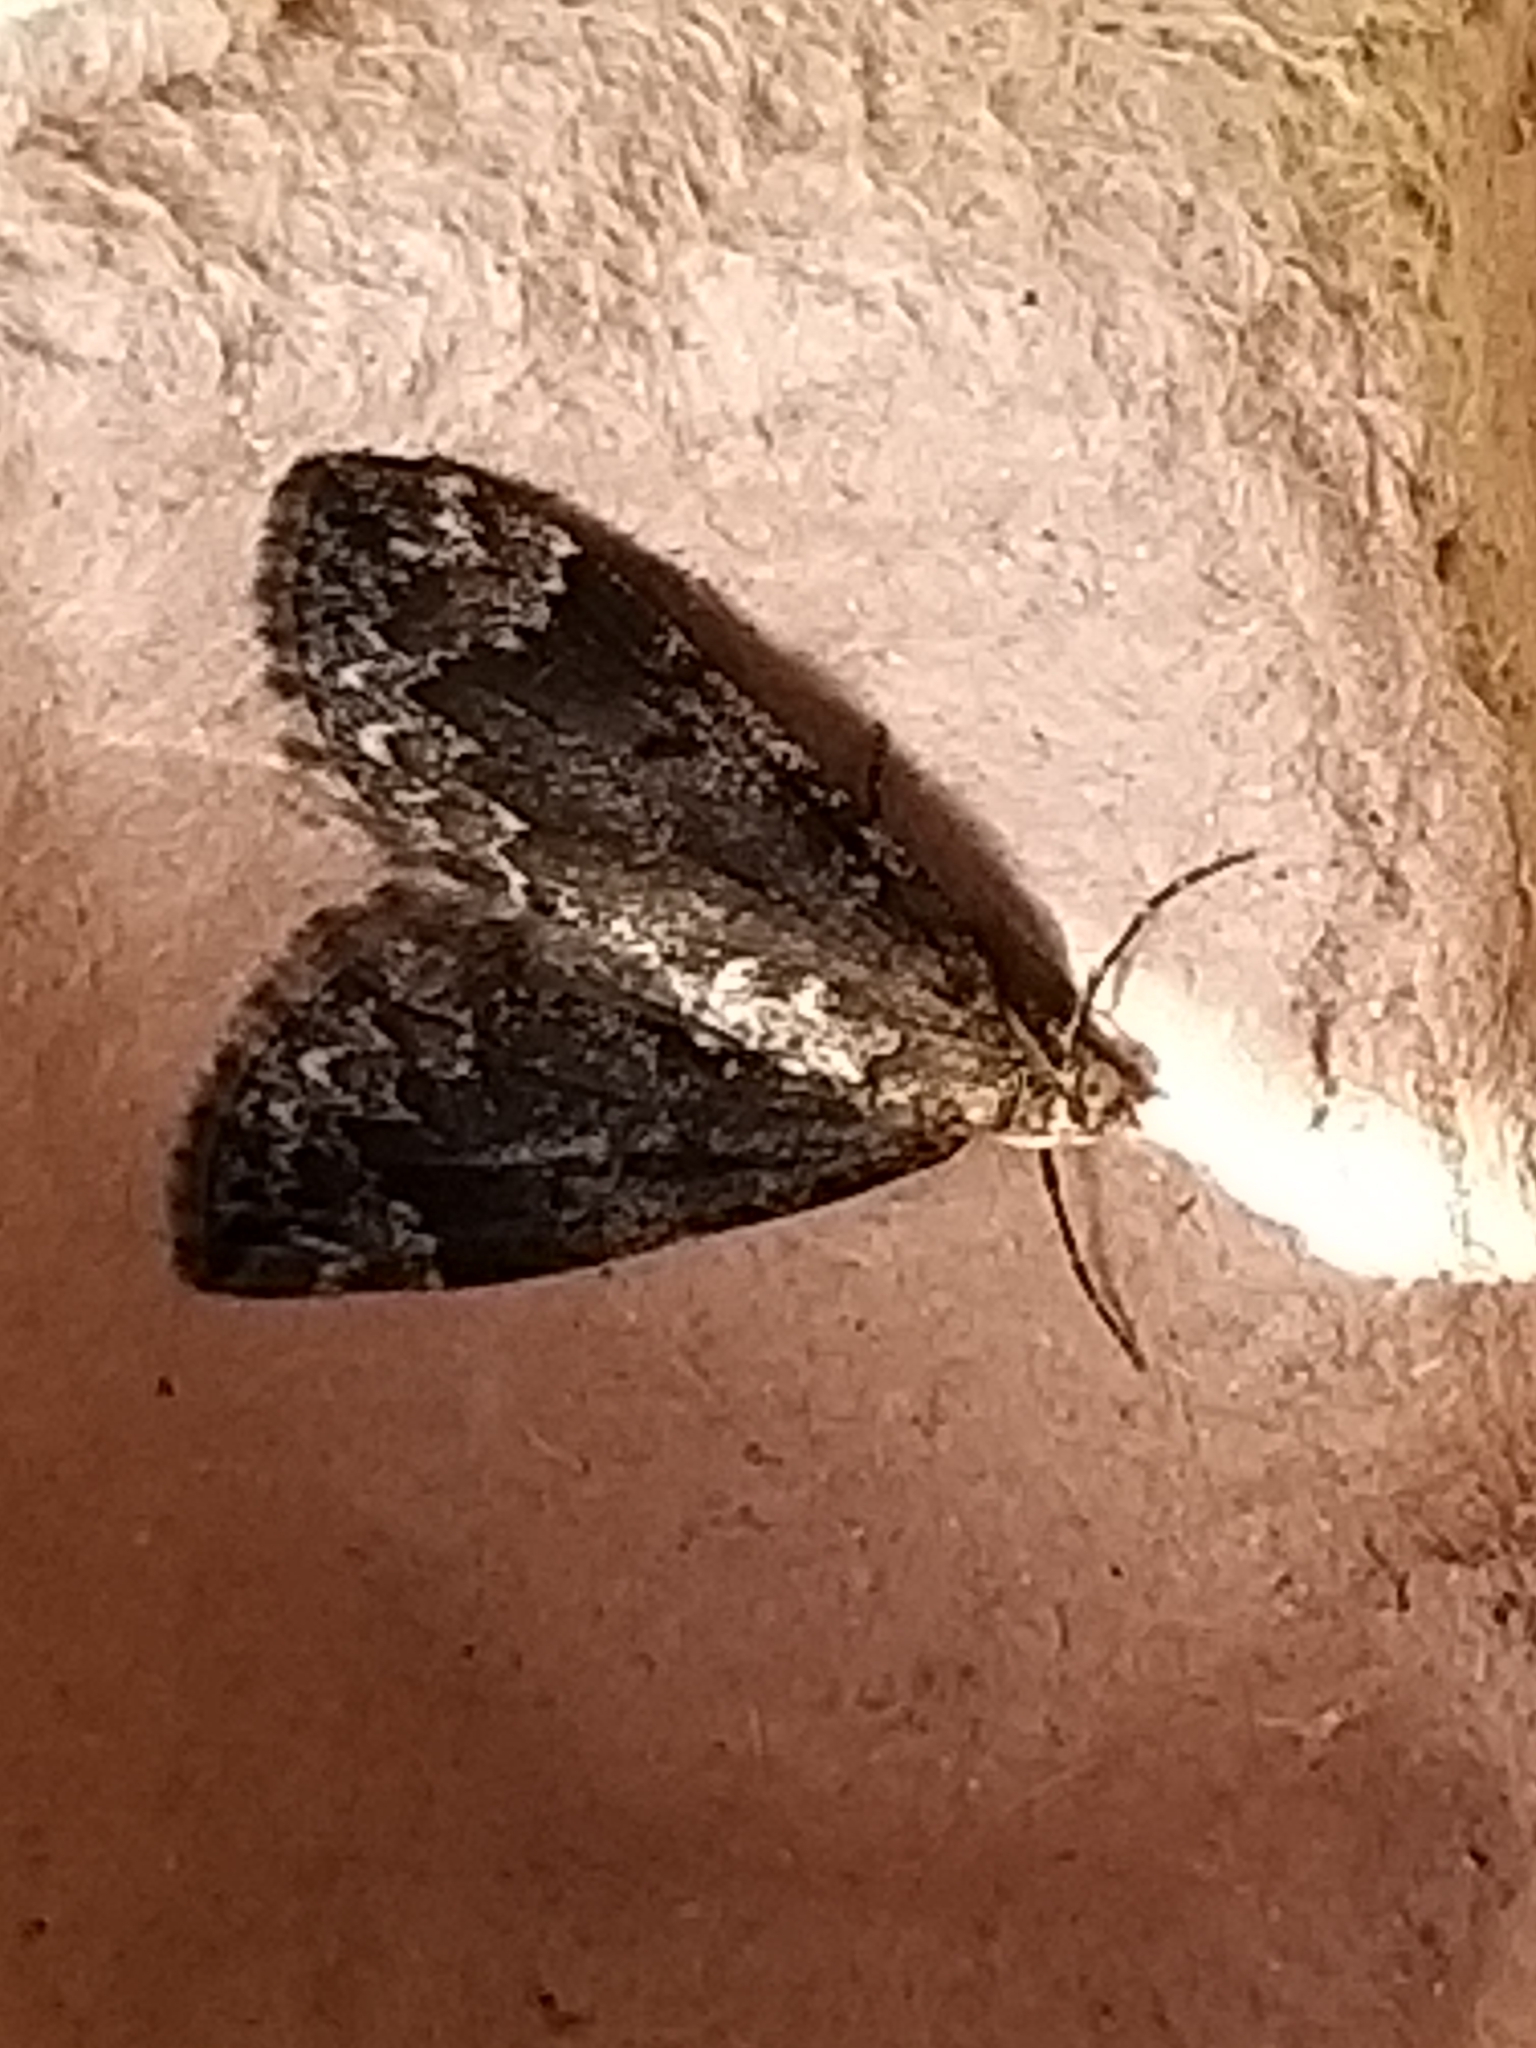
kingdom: Animalia
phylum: Arthropoda
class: Insecta
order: Lepidoptera
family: Geometridae
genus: Dysstroma
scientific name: Dysstroma truncata
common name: Common marbled carpet
